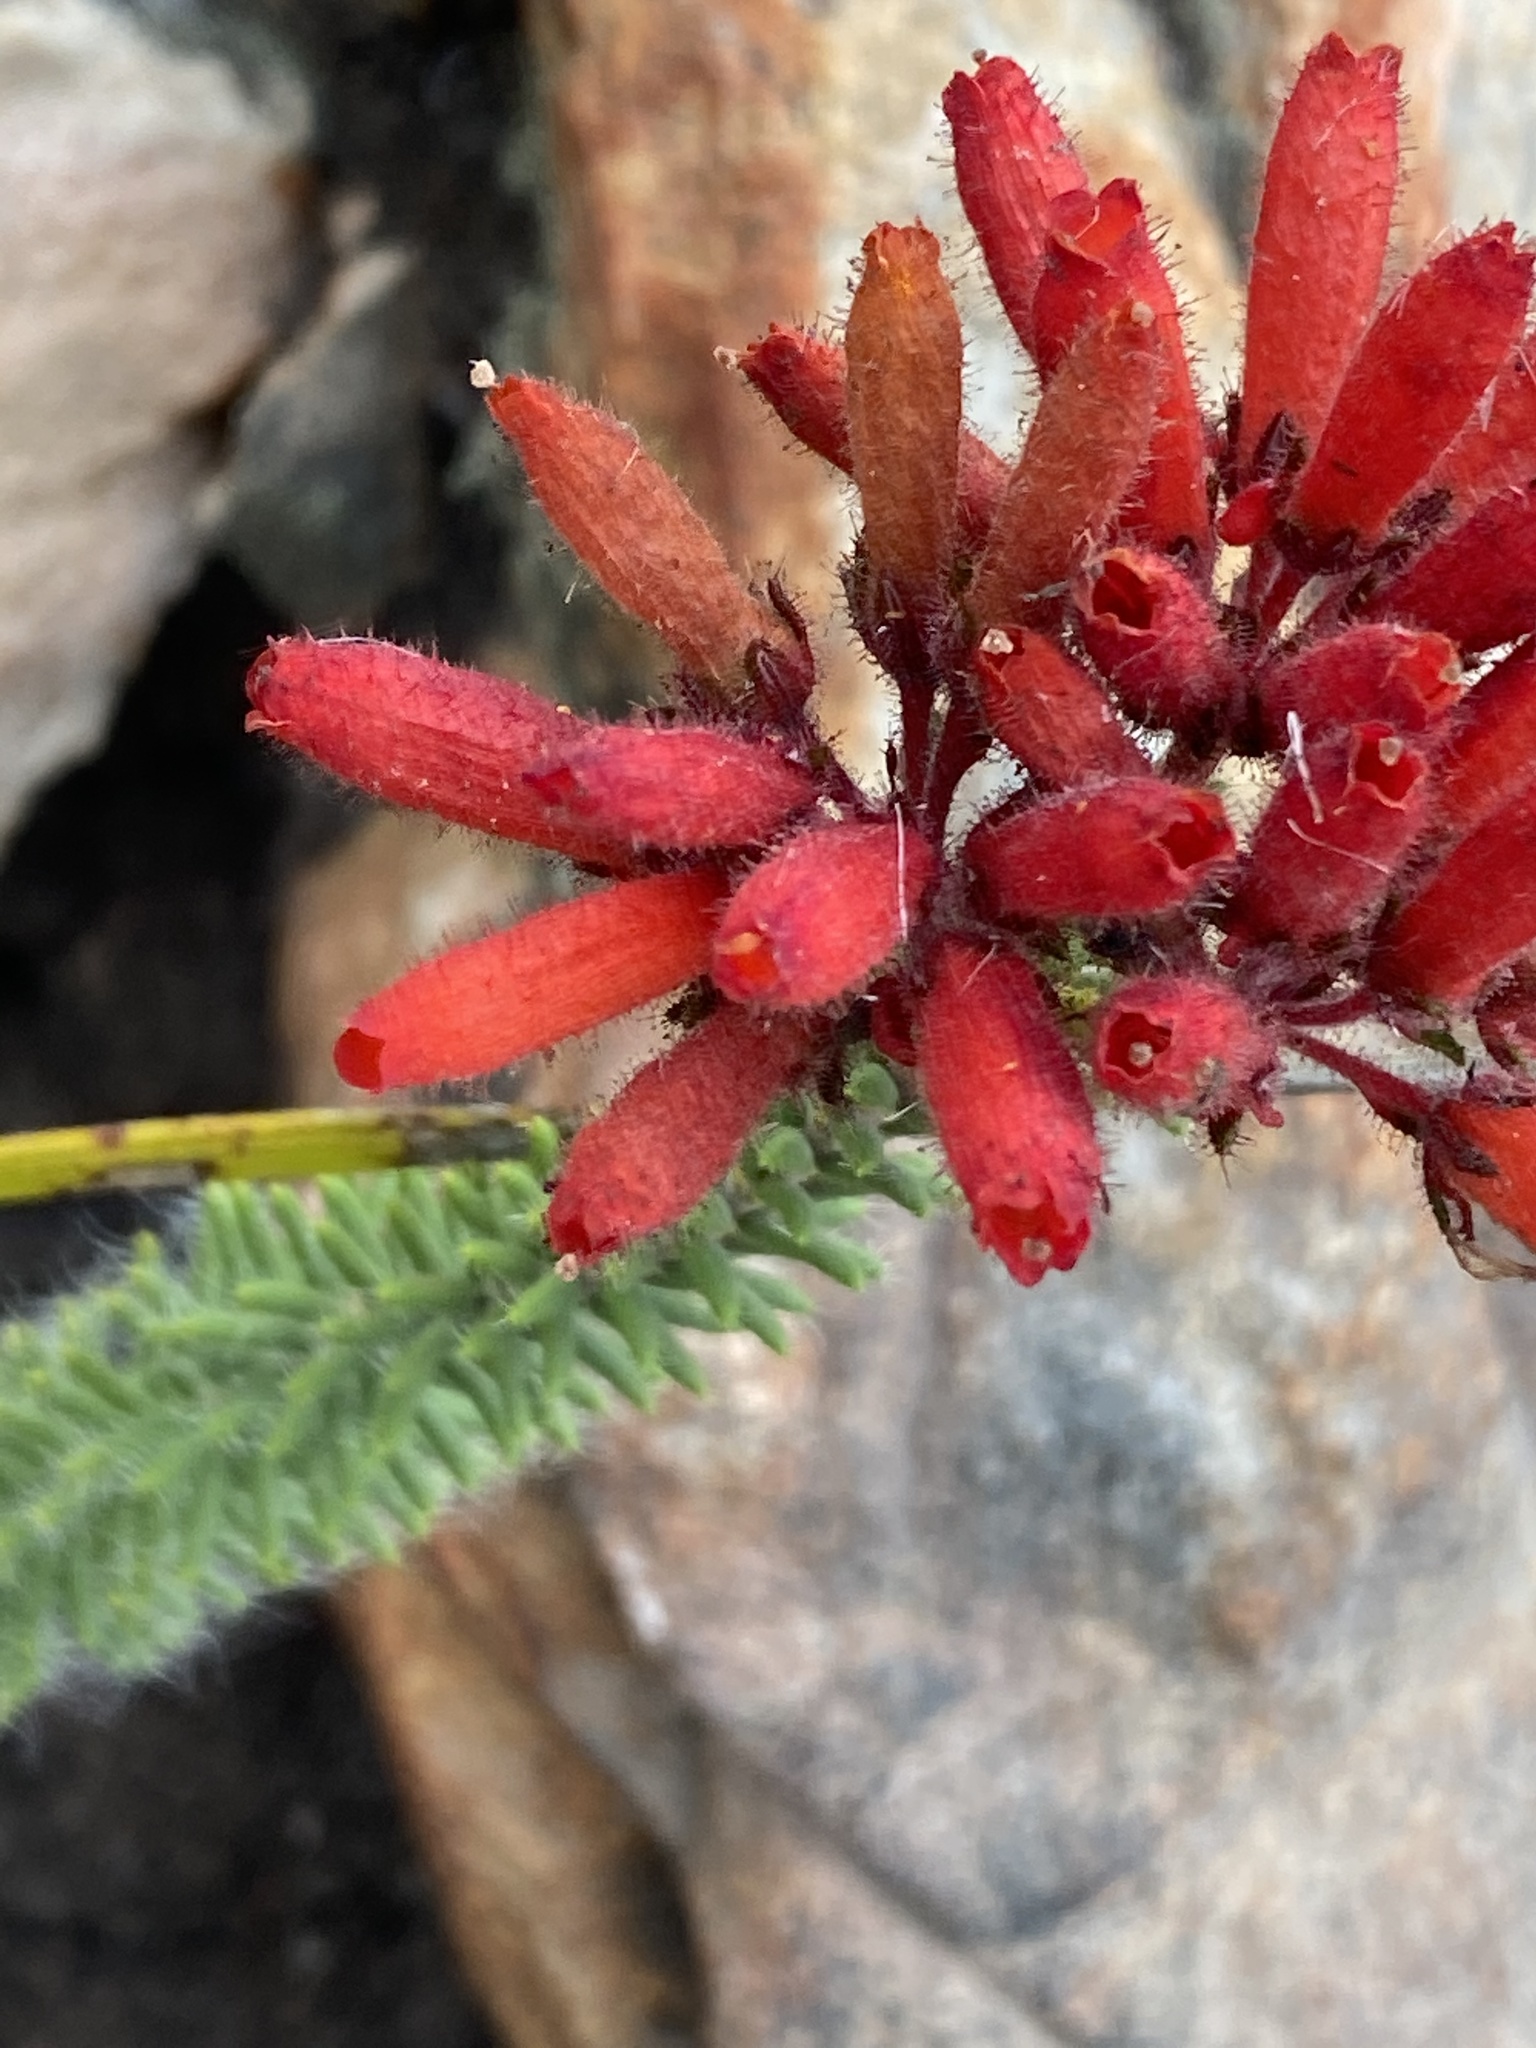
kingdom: Plantae
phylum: Tracheophyta
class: Magnoliopsida
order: Ericales
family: Ericaceae
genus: Erica
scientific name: Erica cerinthoides
